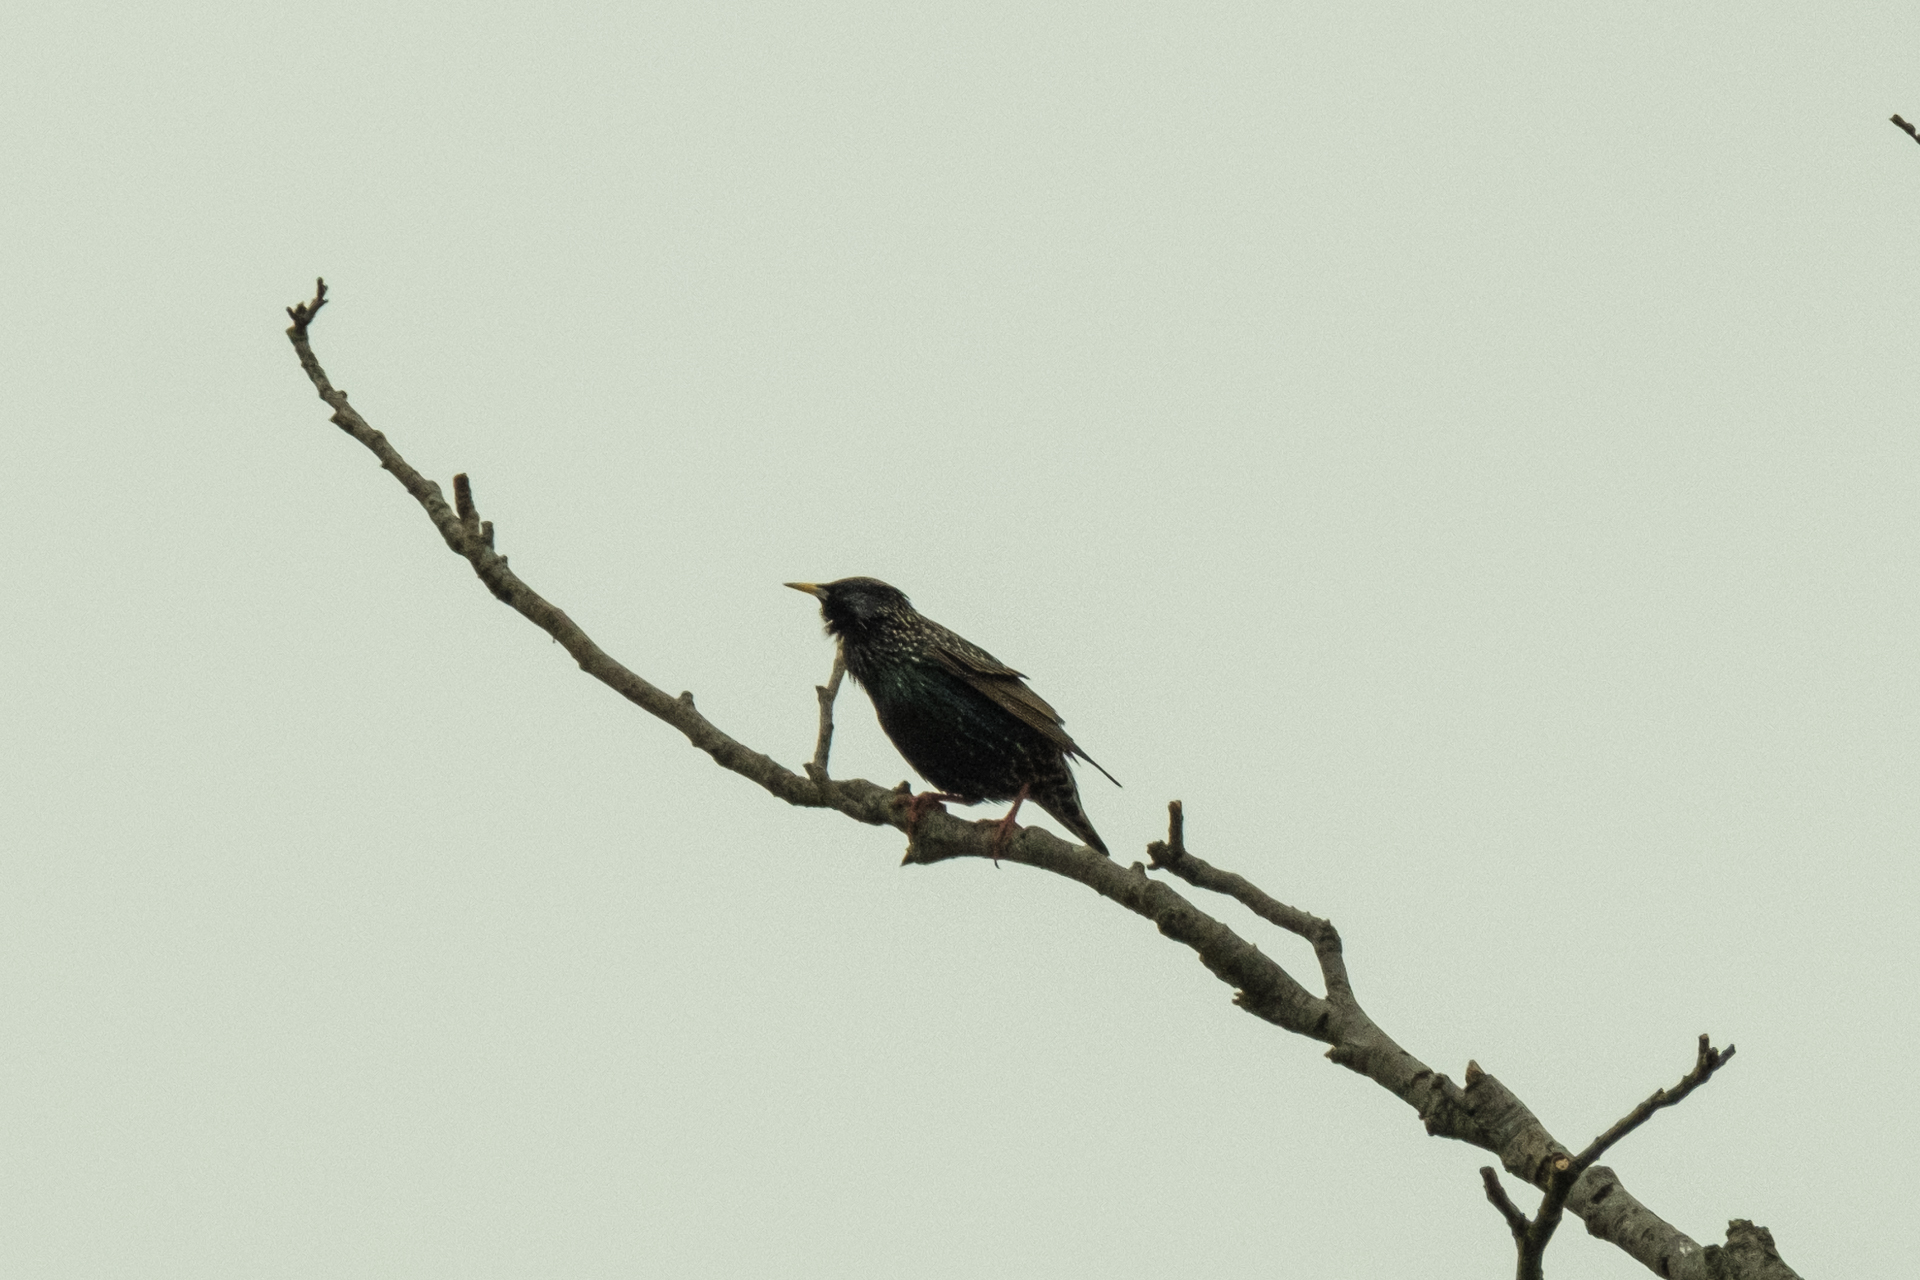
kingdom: Animalia
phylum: Chordata
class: Aves
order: Passeriformes
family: Sturnidae
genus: Sturnus
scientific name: Sturnus vulgaris
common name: Common starling
